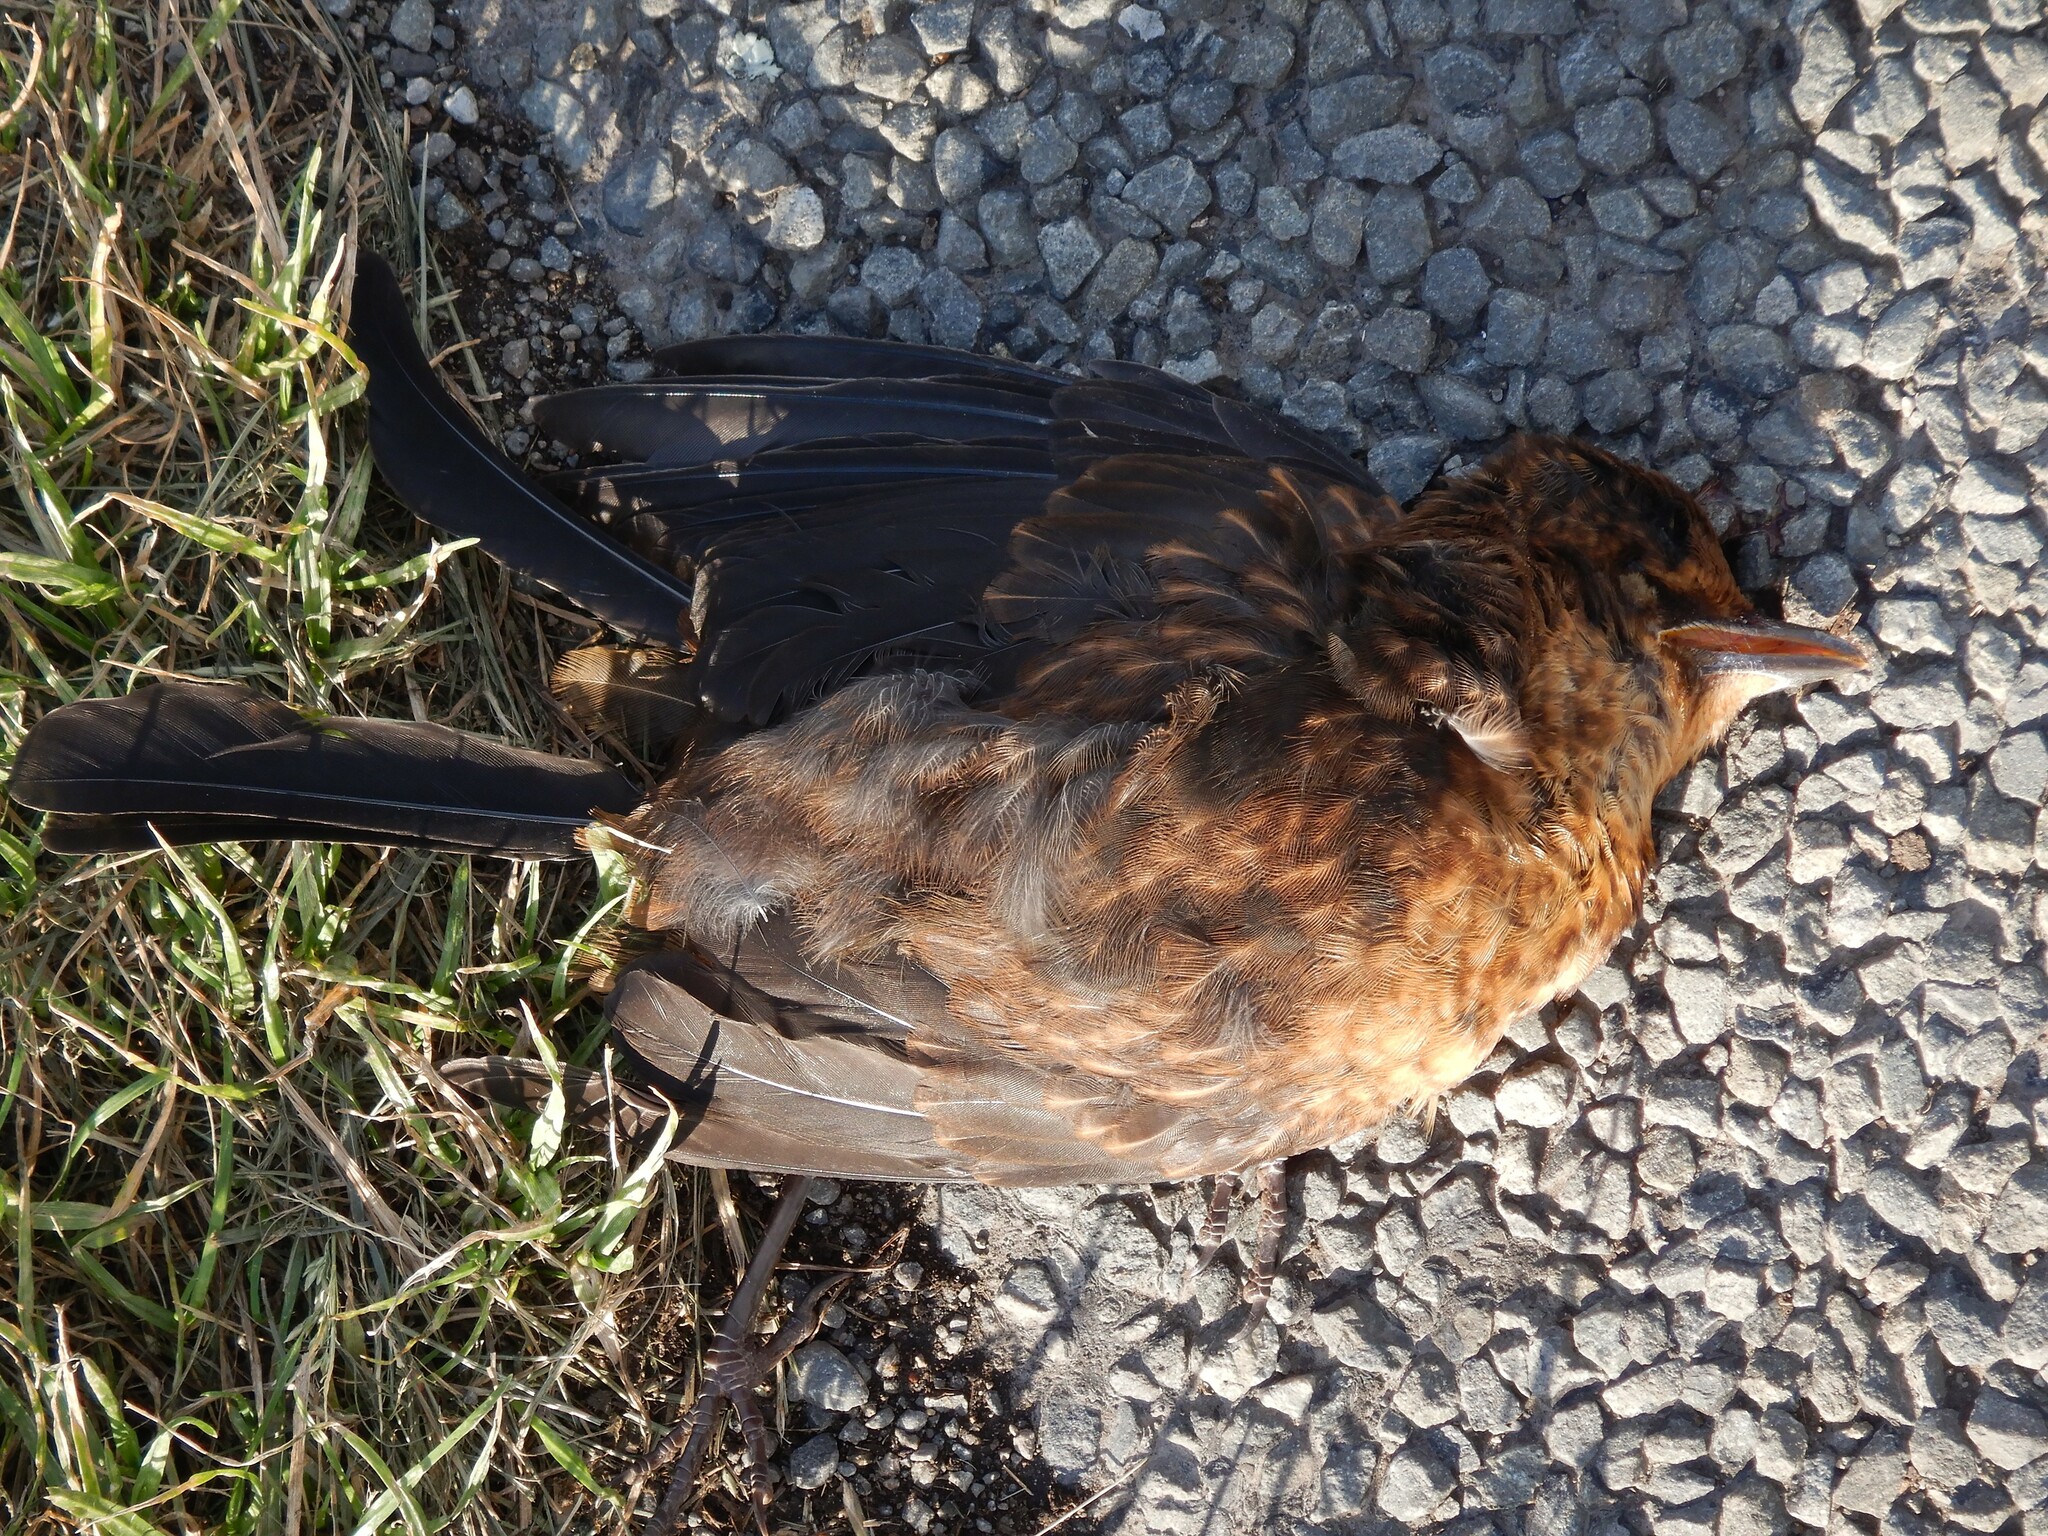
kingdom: Animalia
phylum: Chordata
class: Aves
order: Passeriformes
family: Turdidae
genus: Turdus
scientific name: Turdus merula
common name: Common blackbird
